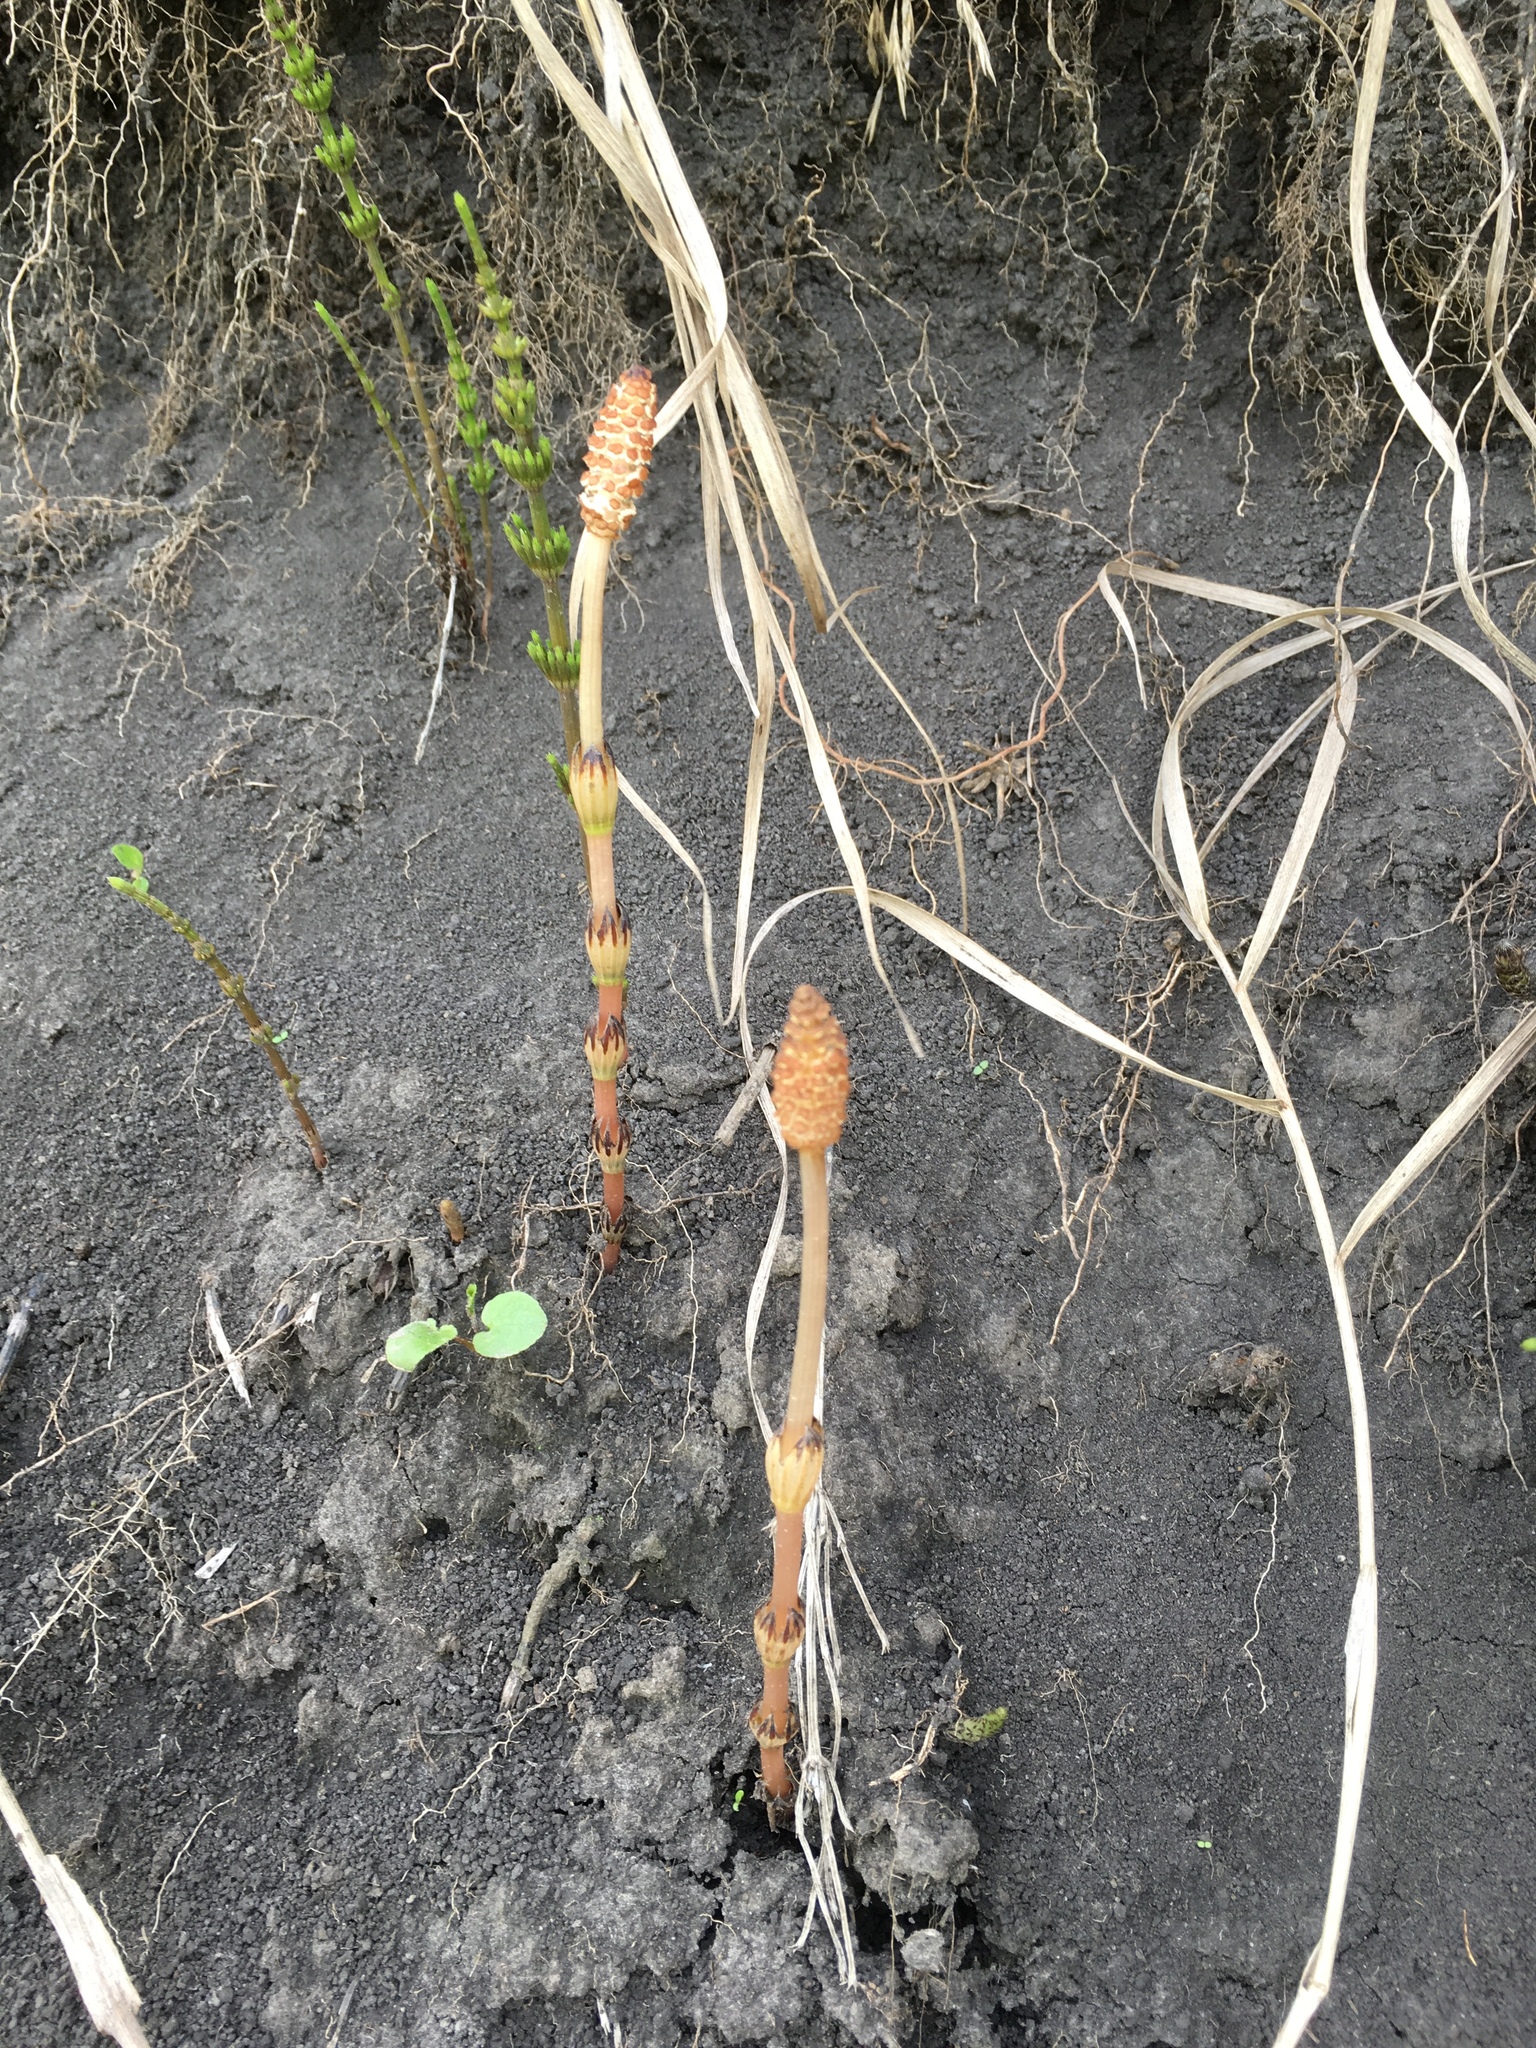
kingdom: Plantae
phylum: Tracheophyta
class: Polypodiopsida
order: Equisetales
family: Equisetaceae
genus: Equisetum
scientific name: Equisetum arvense
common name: Field horsetail
